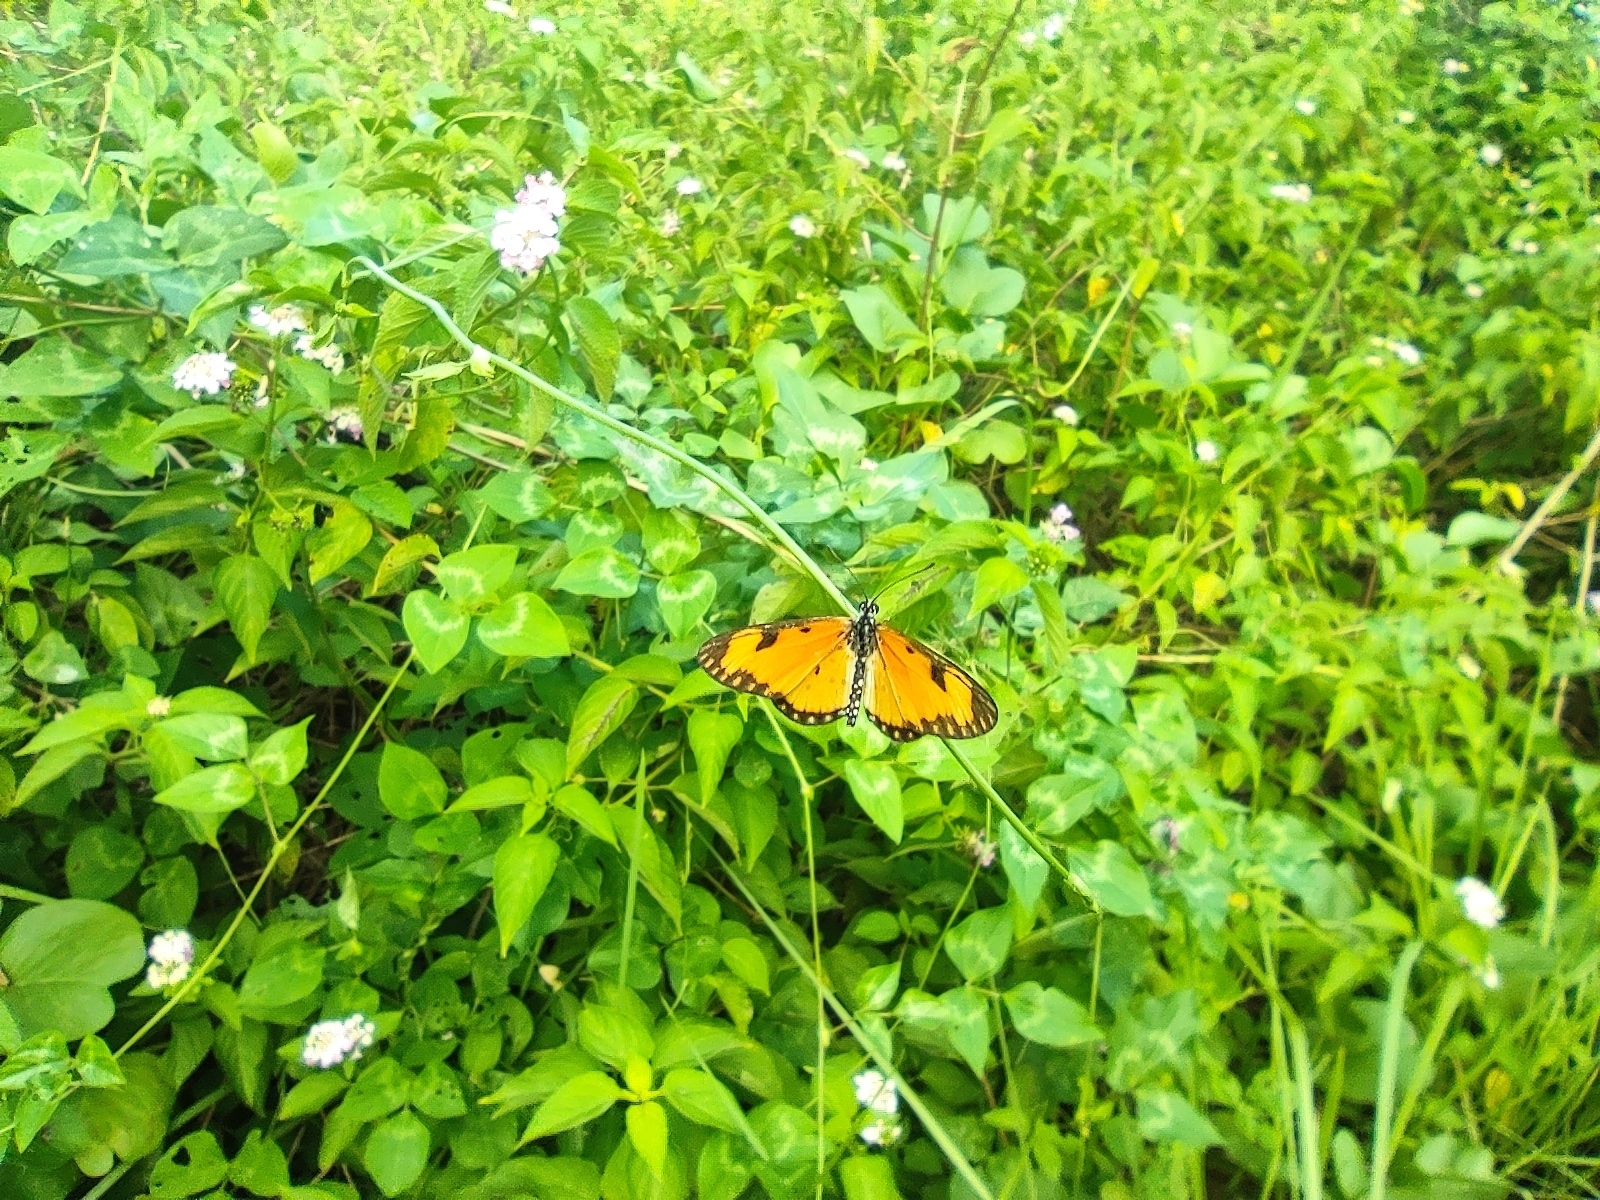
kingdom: Animalia
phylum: Arthropoda
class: Insecta
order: Lepidoptera
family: Nymphalidae
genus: Acraea
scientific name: Acraea Telchinia serena
